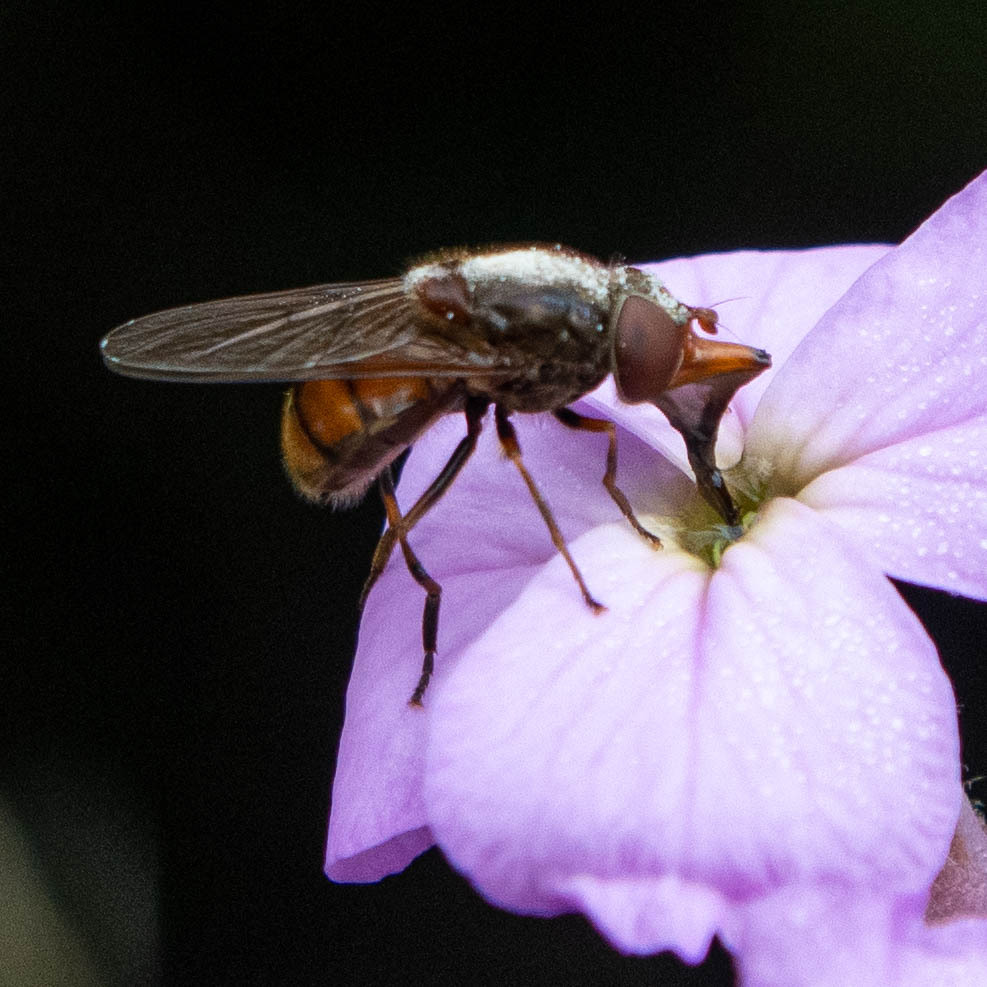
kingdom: Animalia
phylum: Arthropoda
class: Insecta
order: Diptera
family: Syrphidae
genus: Rhingia
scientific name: Rhingia campestris
